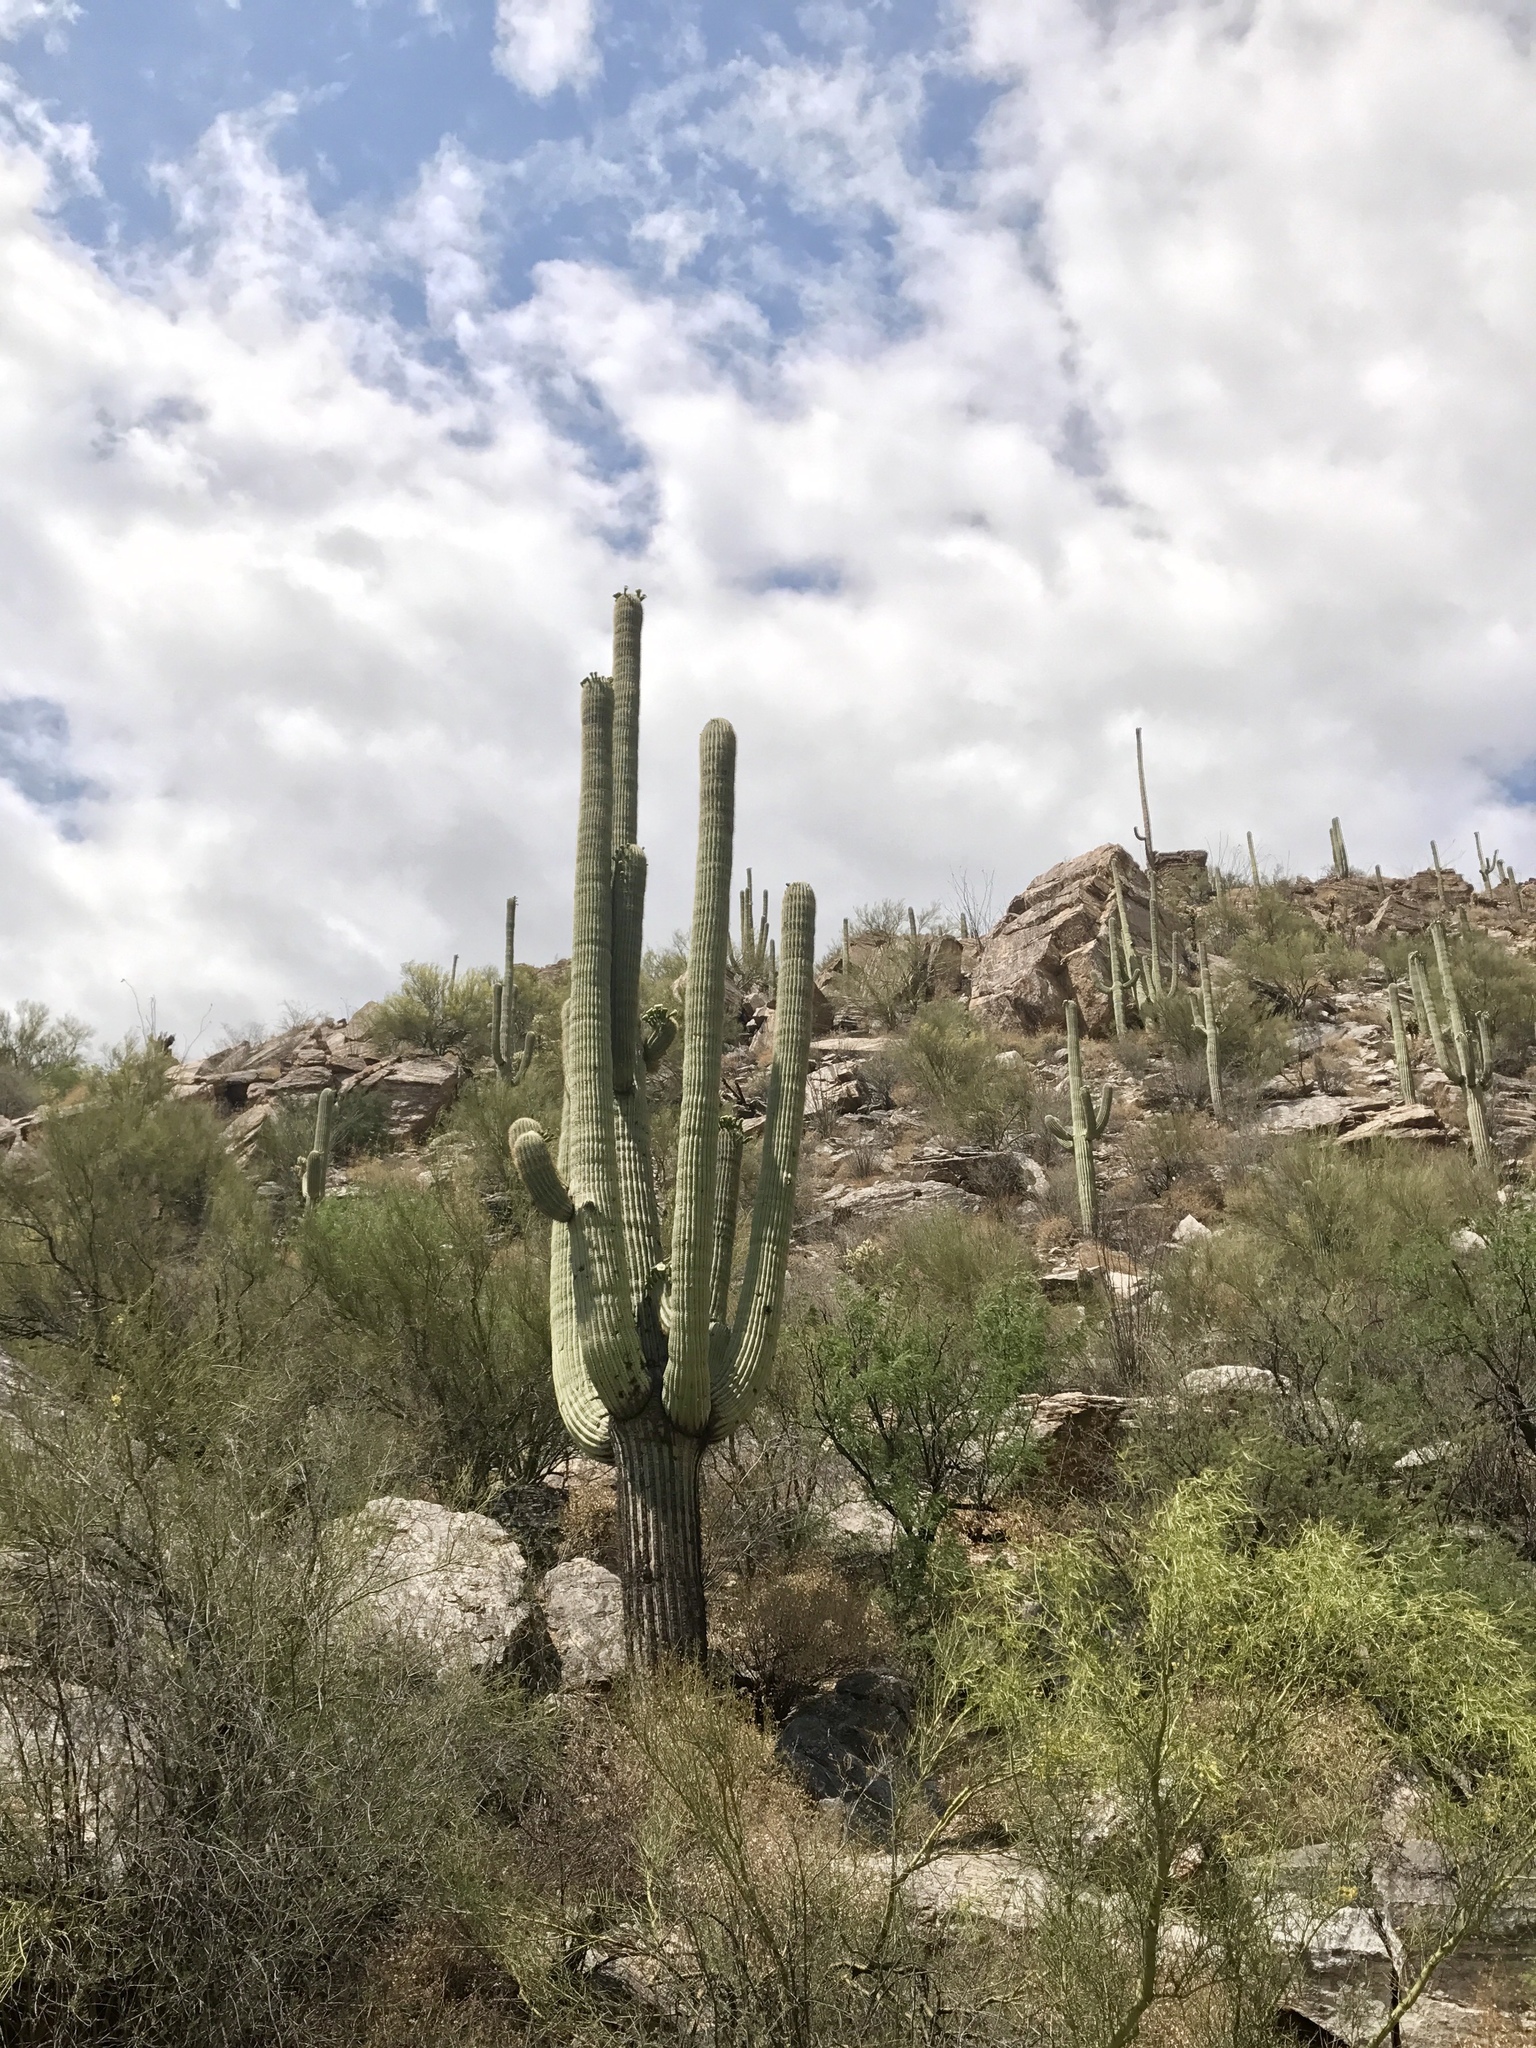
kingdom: Plantae
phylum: Tracheophyta
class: Magnoliopsida
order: Caryophyllales
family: Cactaceae
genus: Carnegiea
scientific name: Carnegiea gigantea
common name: Saguaro
